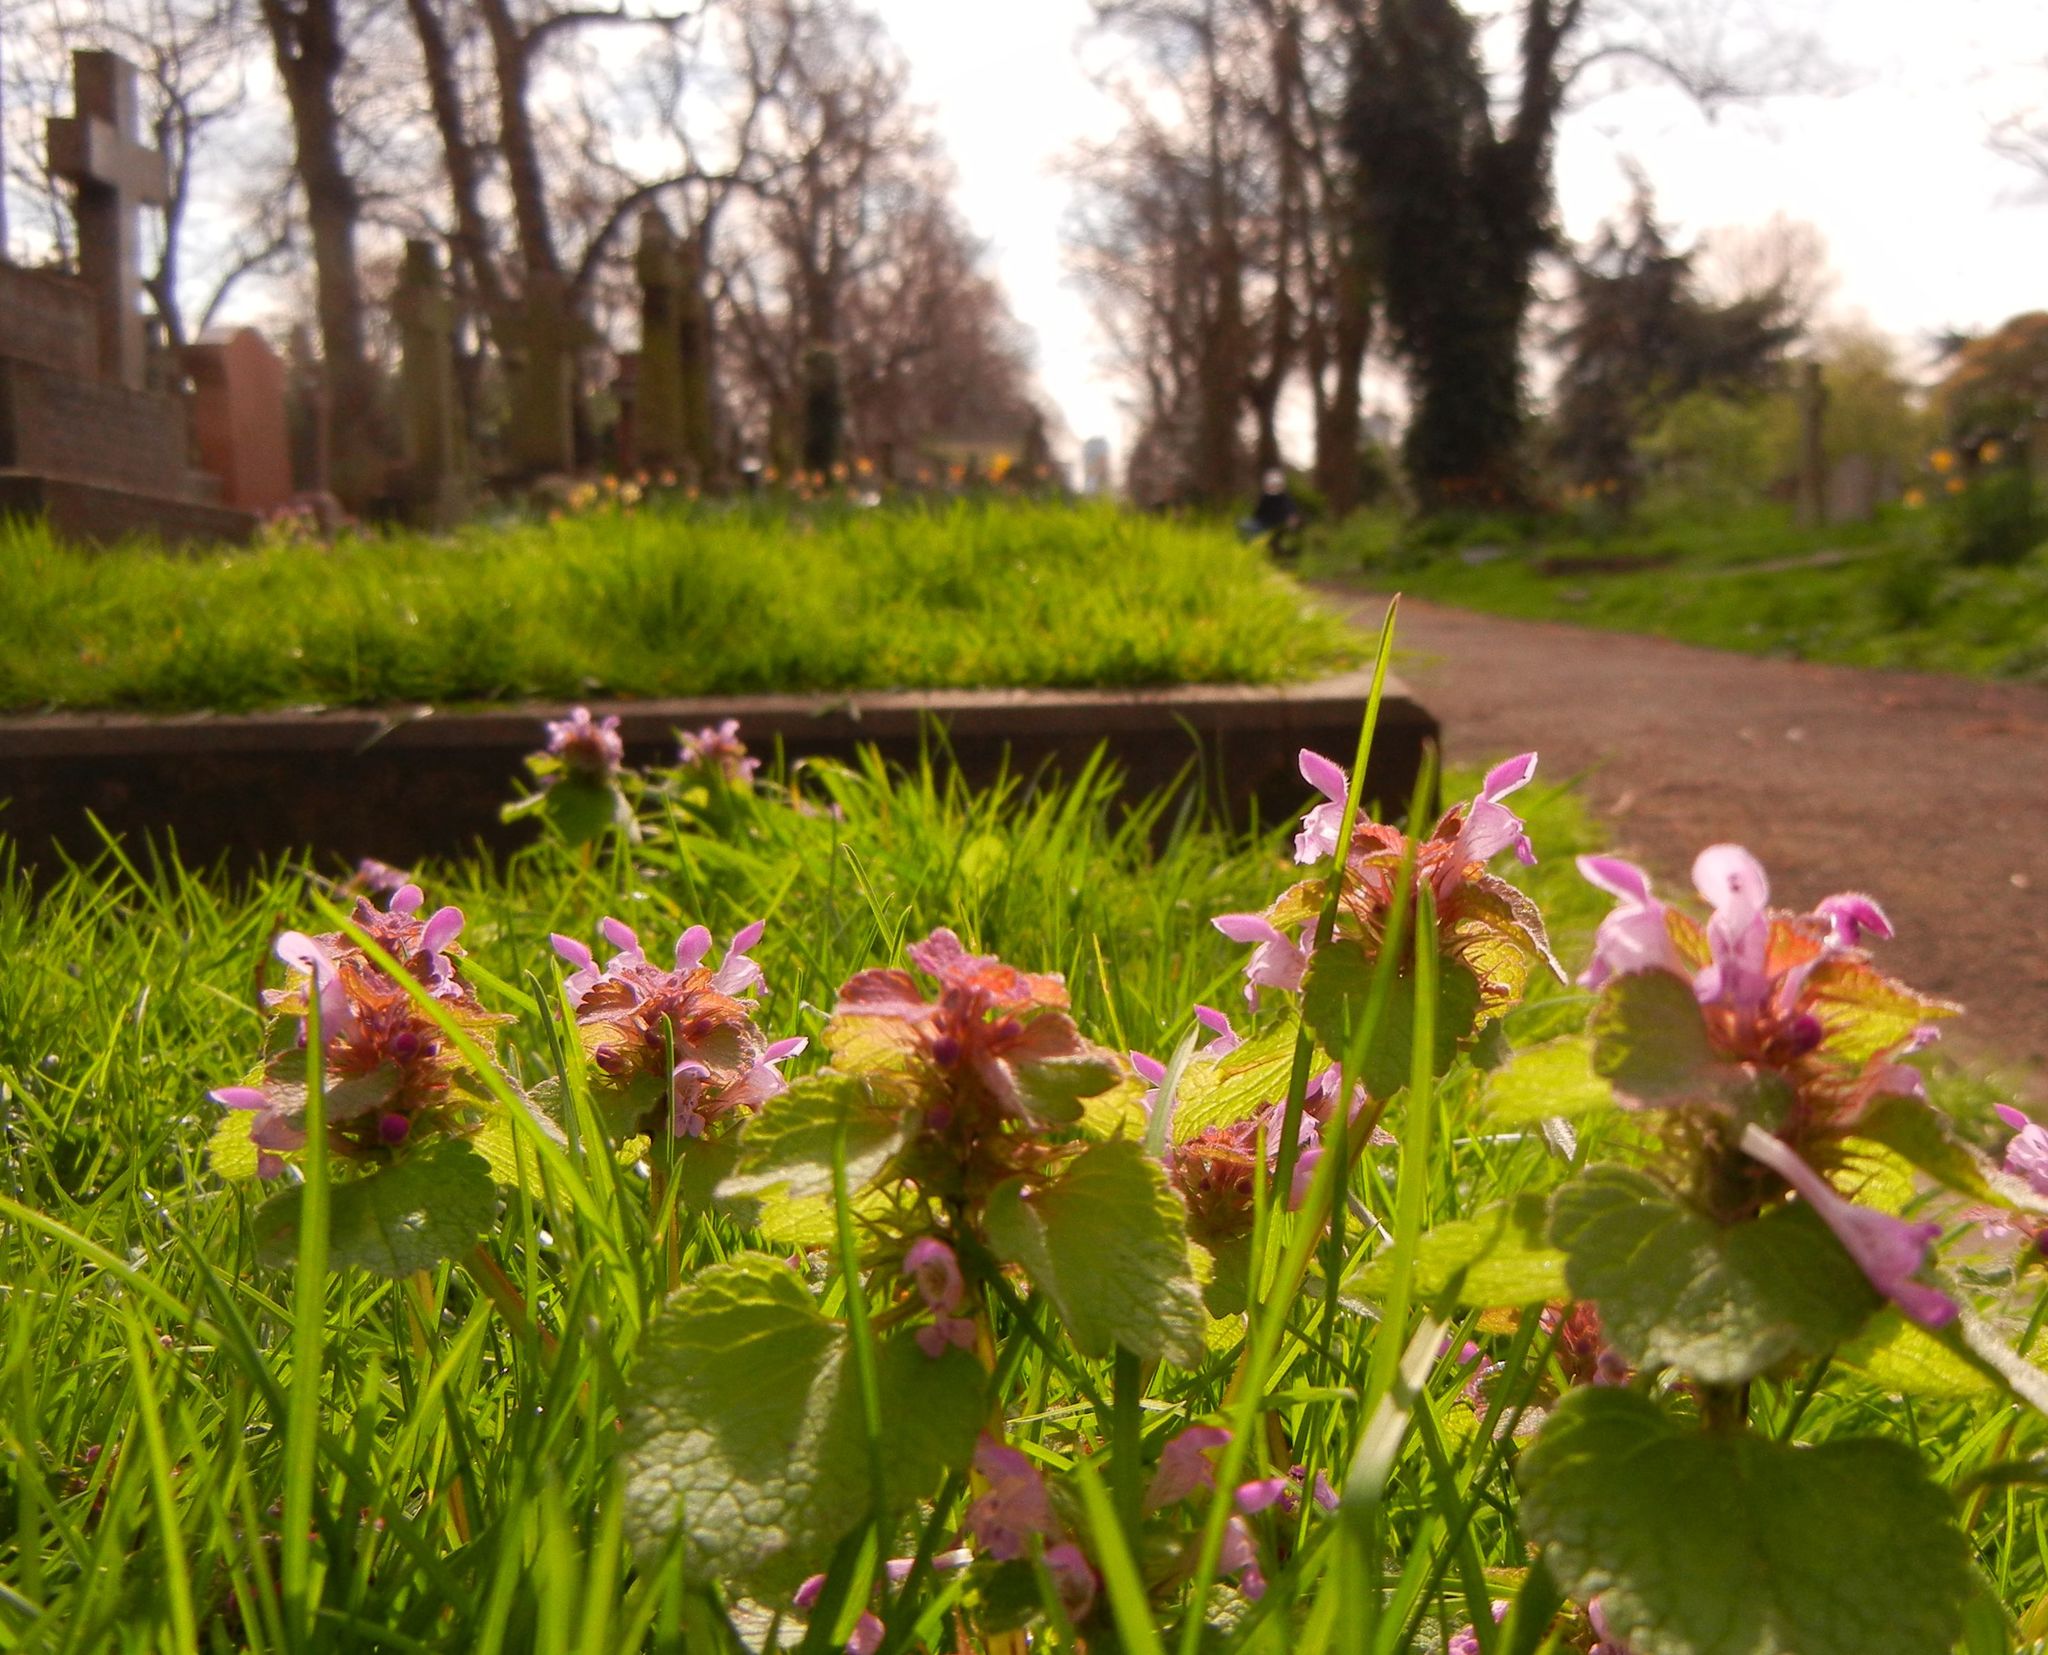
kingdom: Plantae
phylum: Tracheophyta
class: Magnoliopsida
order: Lamiales
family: Lamiaceae
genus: Lamium
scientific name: Lamium purpureum
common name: Red dead-nettle
